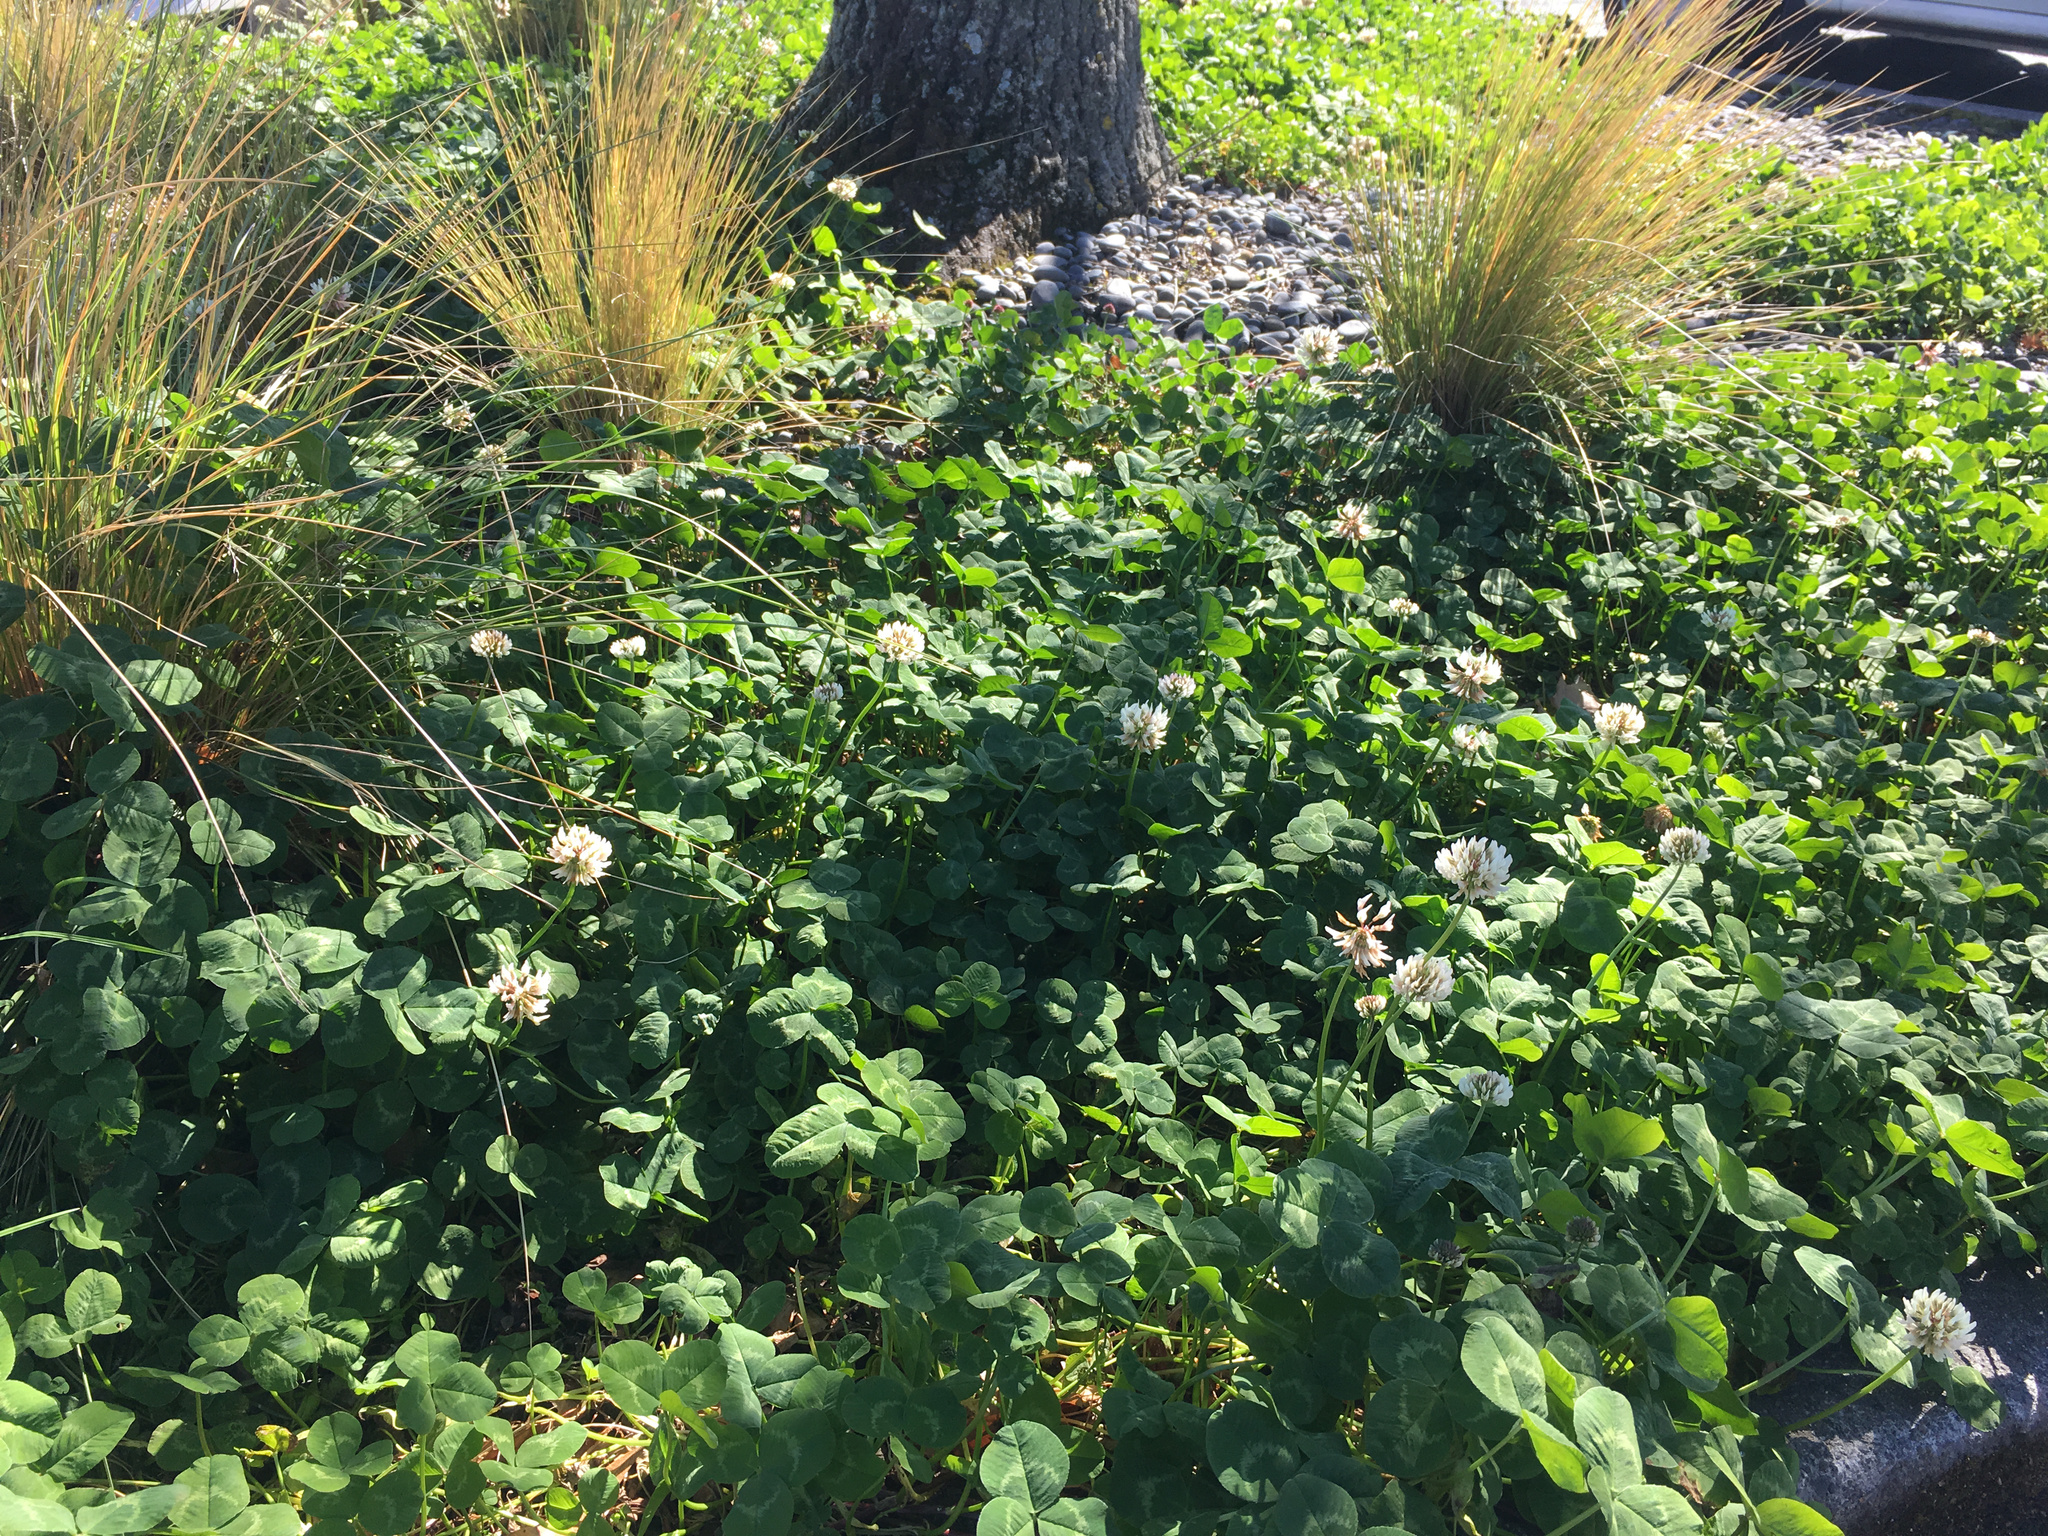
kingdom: Plantae
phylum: Tracheophyta
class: Magnoliopsida
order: Fabales
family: Fabaceae
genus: Trifolium
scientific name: Trifolium repens
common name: White clover
